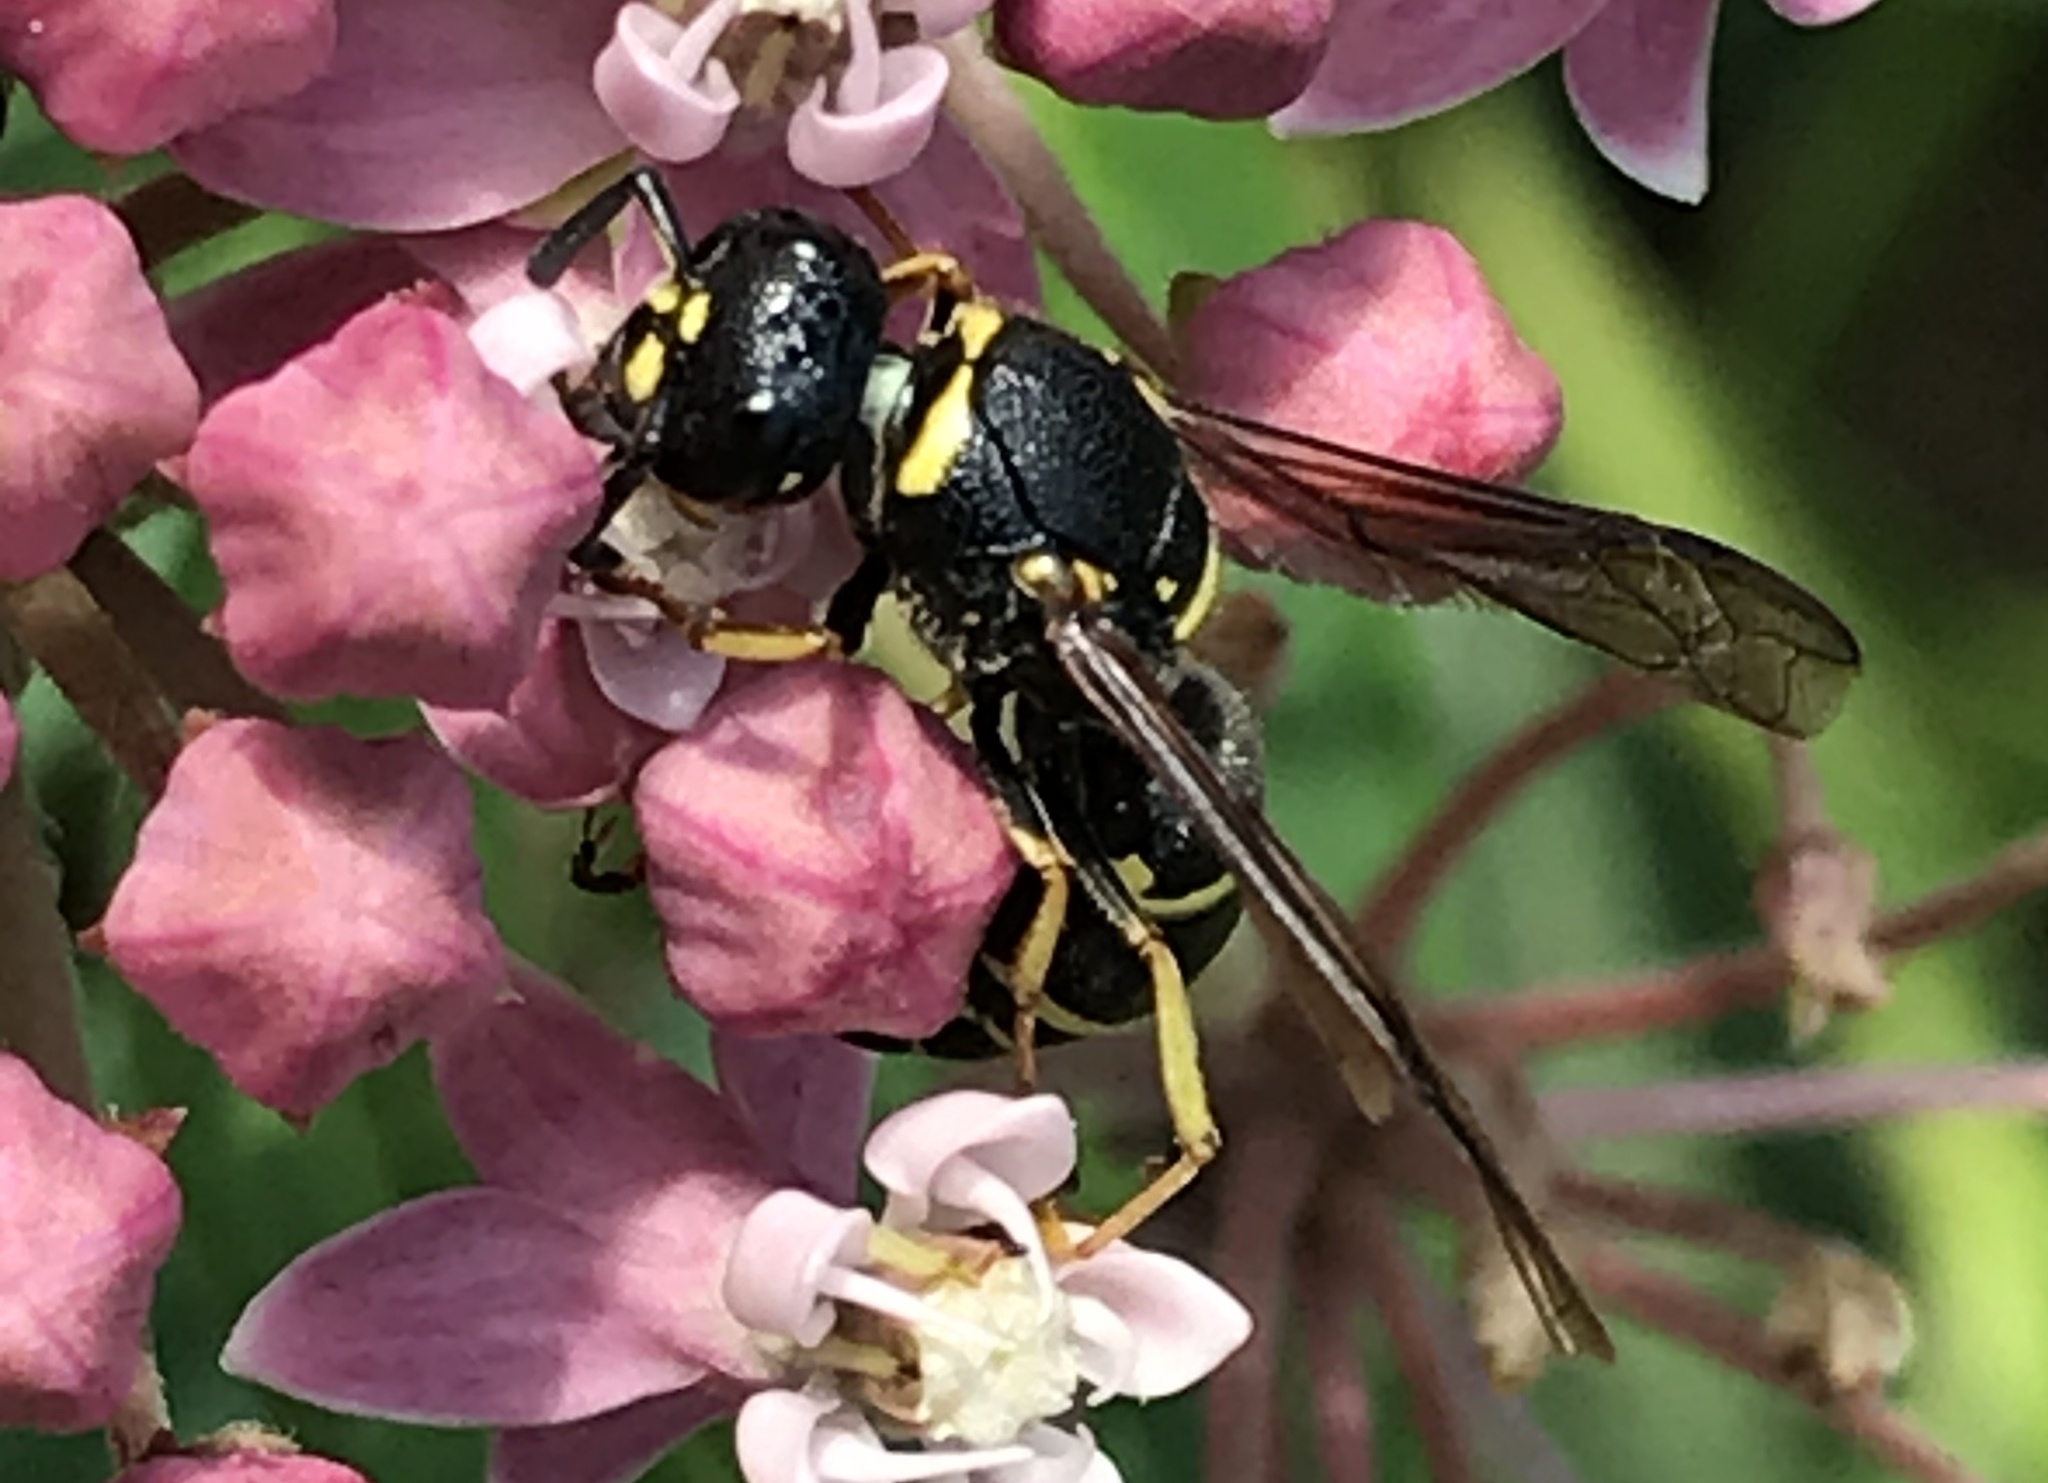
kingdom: Animalia
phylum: Arthropoda
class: Insecta
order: Hymenoptera
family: Eumenidae
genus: Euodynerus
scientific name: Euodynerus foraminatus
